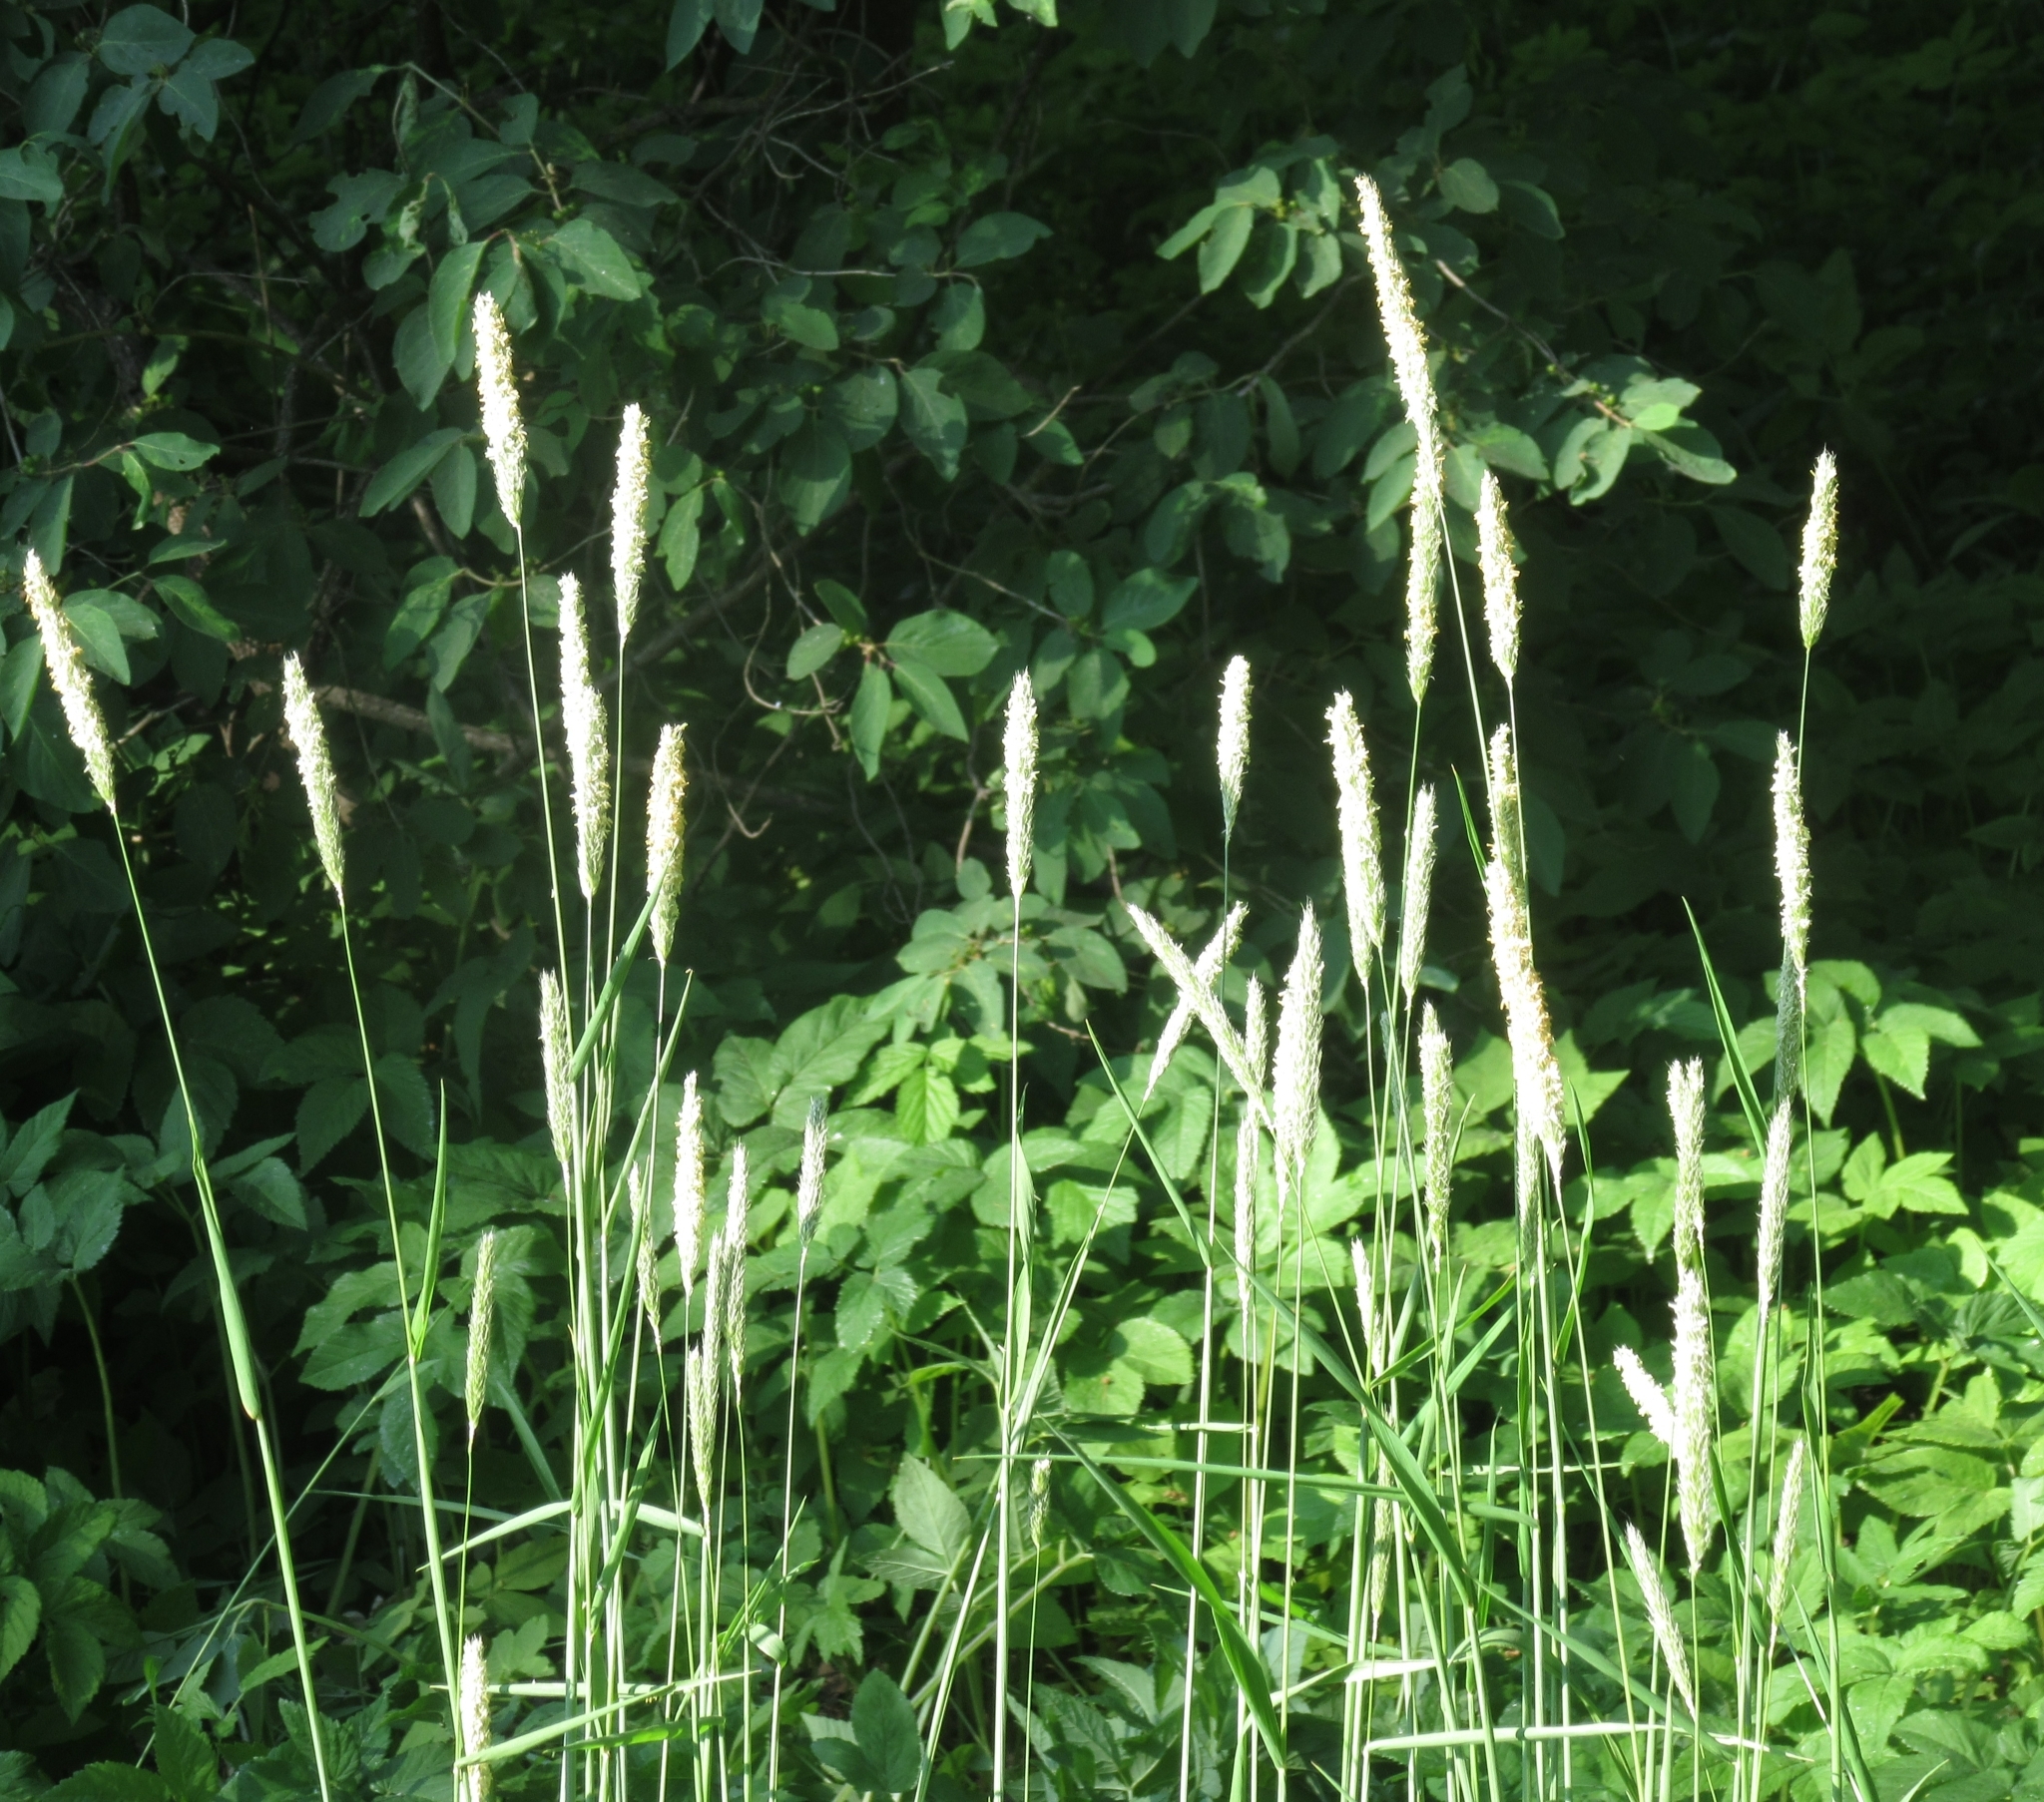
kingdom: Plantae
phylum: Tracheophyta
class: Liliopsida
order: Poales
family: Poaceae
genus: Alopecurus
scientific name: Alopecurus pratensis
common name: Meadow foxtail
